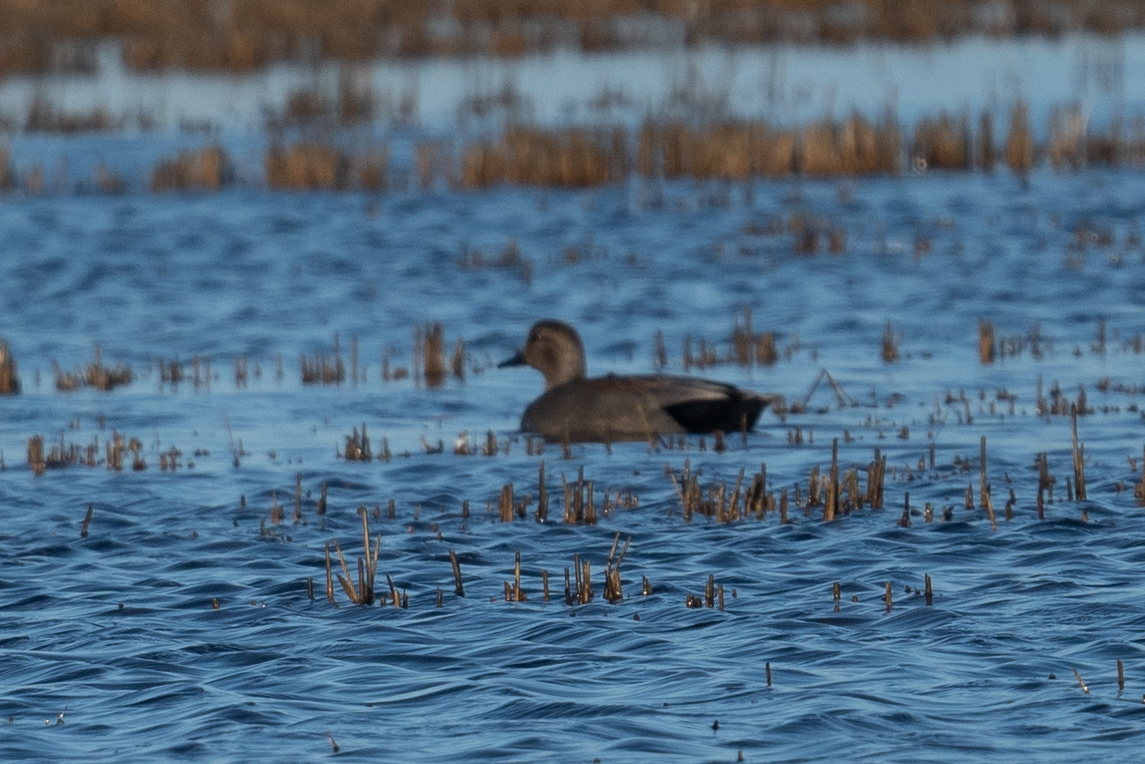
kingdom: Animalia
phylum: Chordata
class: Aves
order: Anseriformes
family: Anatidae
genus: Mareca
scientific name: Mareca strepera
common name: Gadwall
